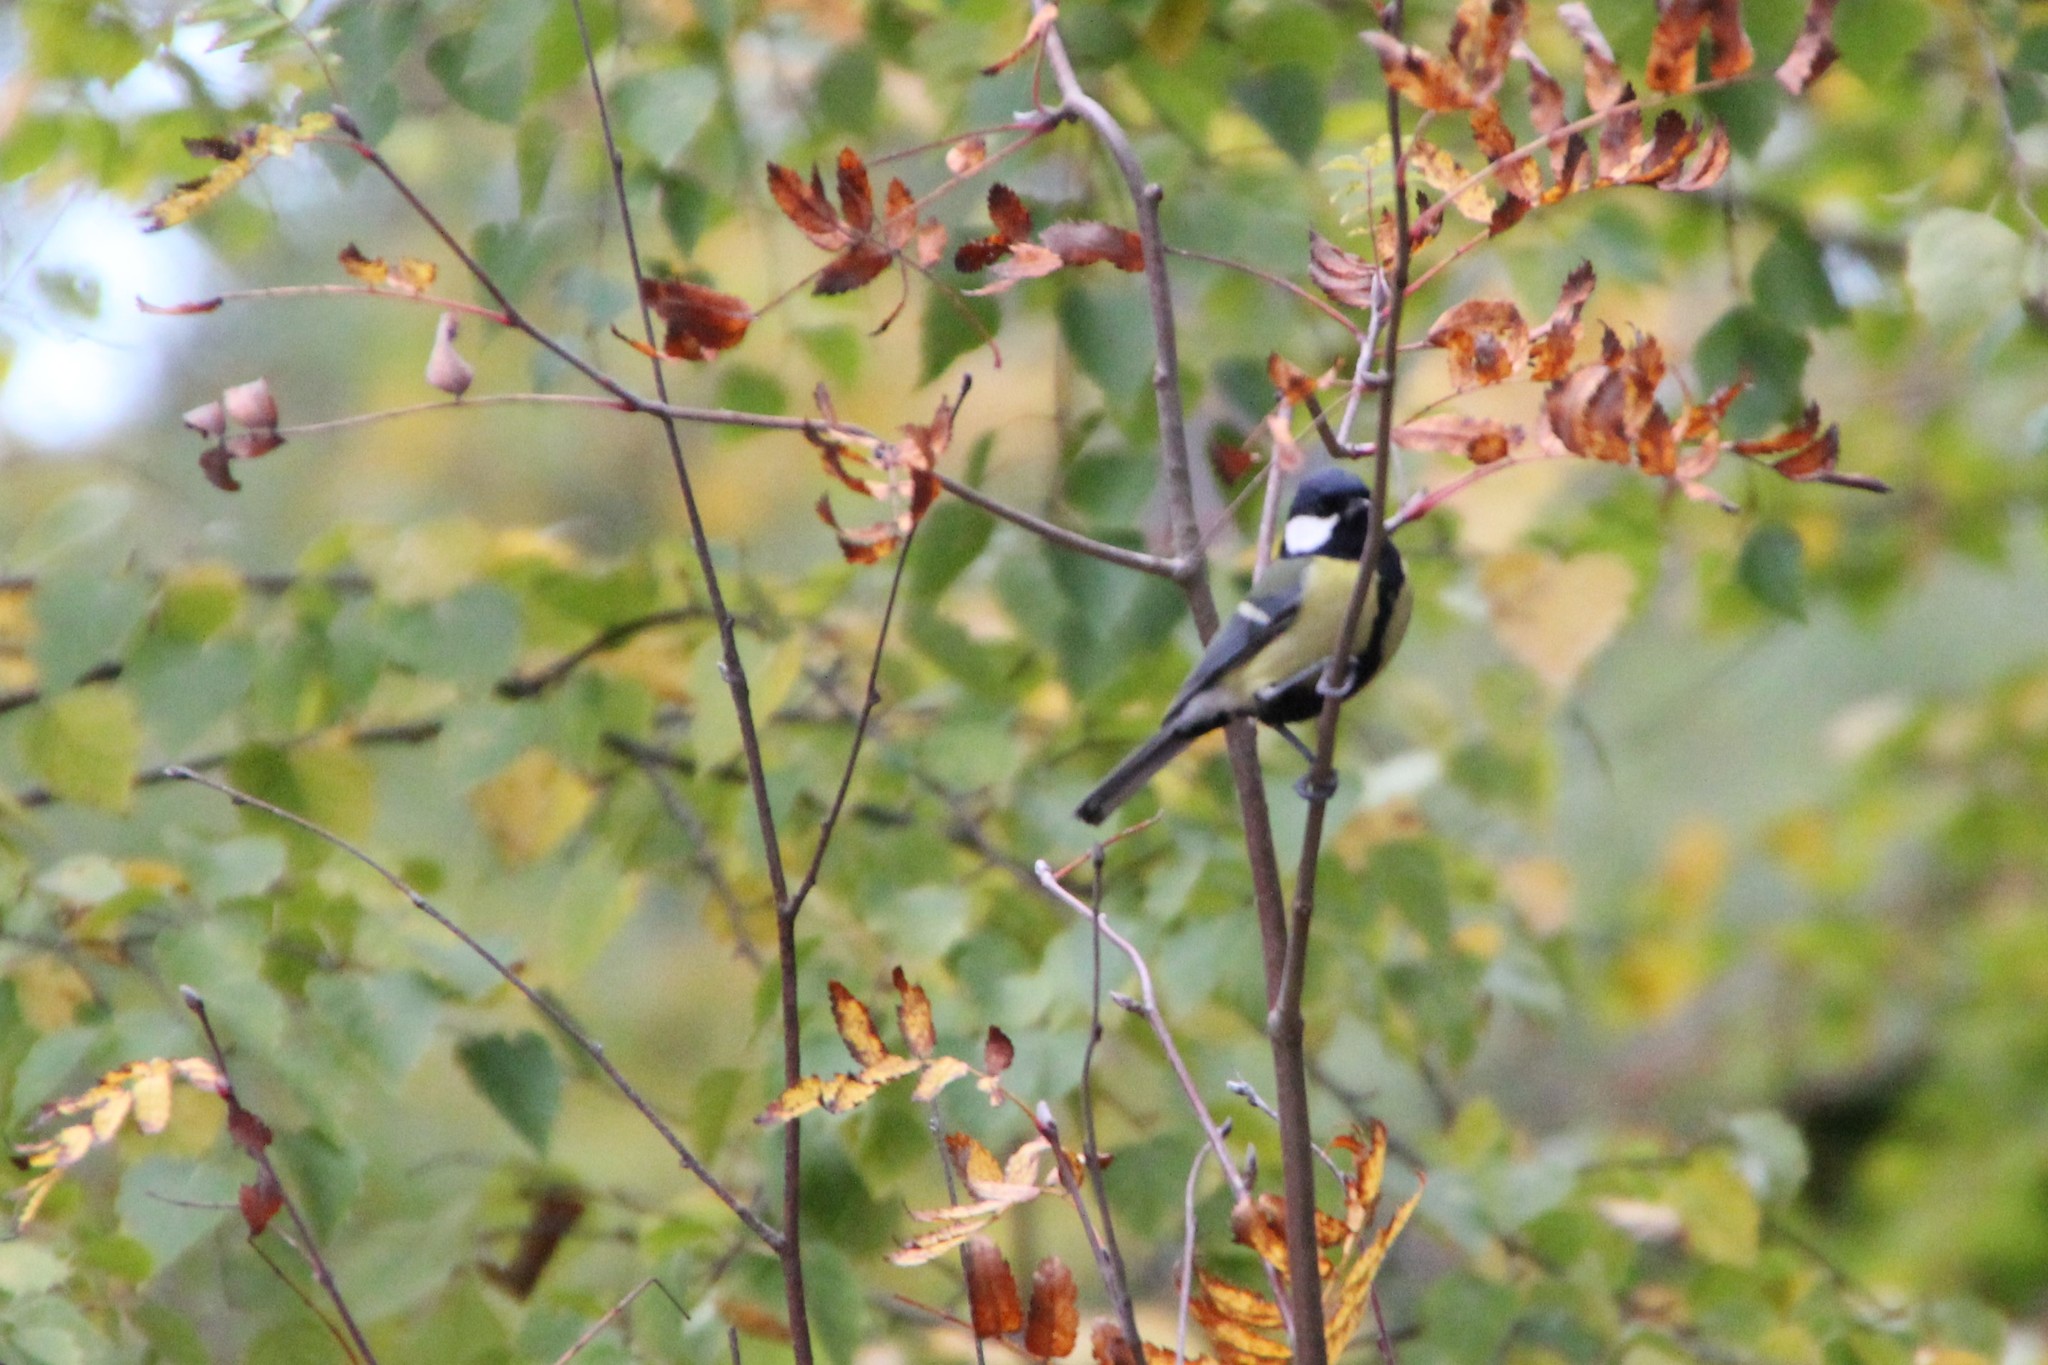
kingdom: Animalia
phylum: Chordata
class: Aves
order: Passeriformes
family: Paridae
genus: Parus
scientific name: Parus major
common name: Great tit
